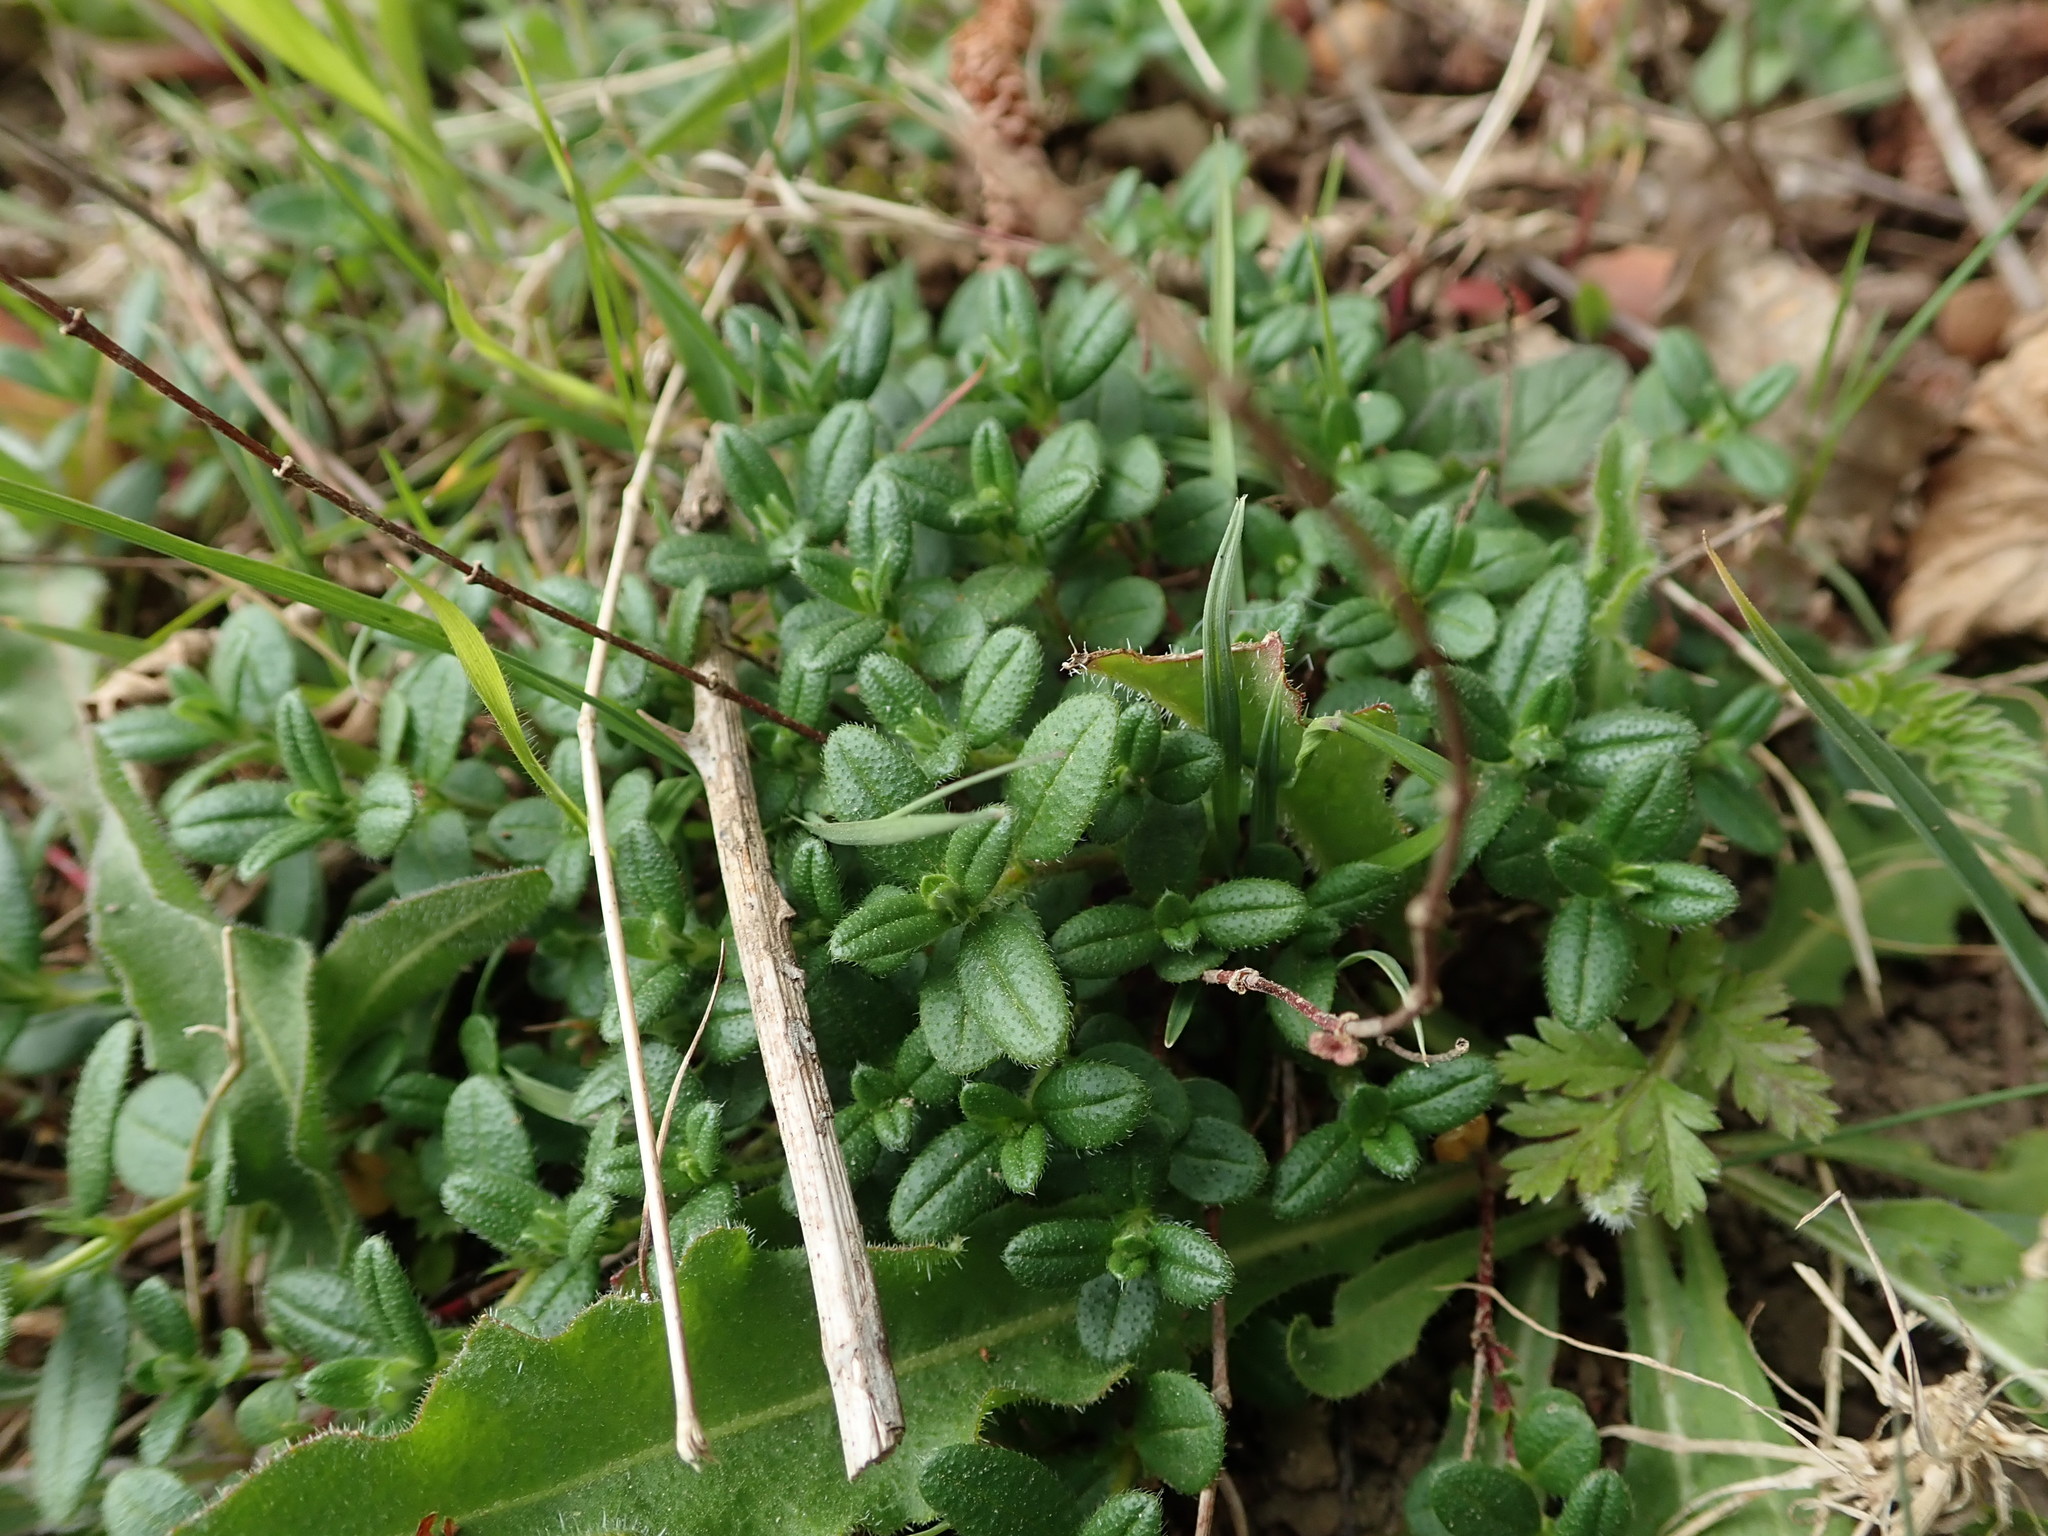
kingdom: Plantae
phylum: Tracheophyta
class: Magnoliopsida
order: Malvales
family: Cistaceae
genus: Helianthemum
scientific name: Helianthemum nummularium
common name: Common rock-rose
